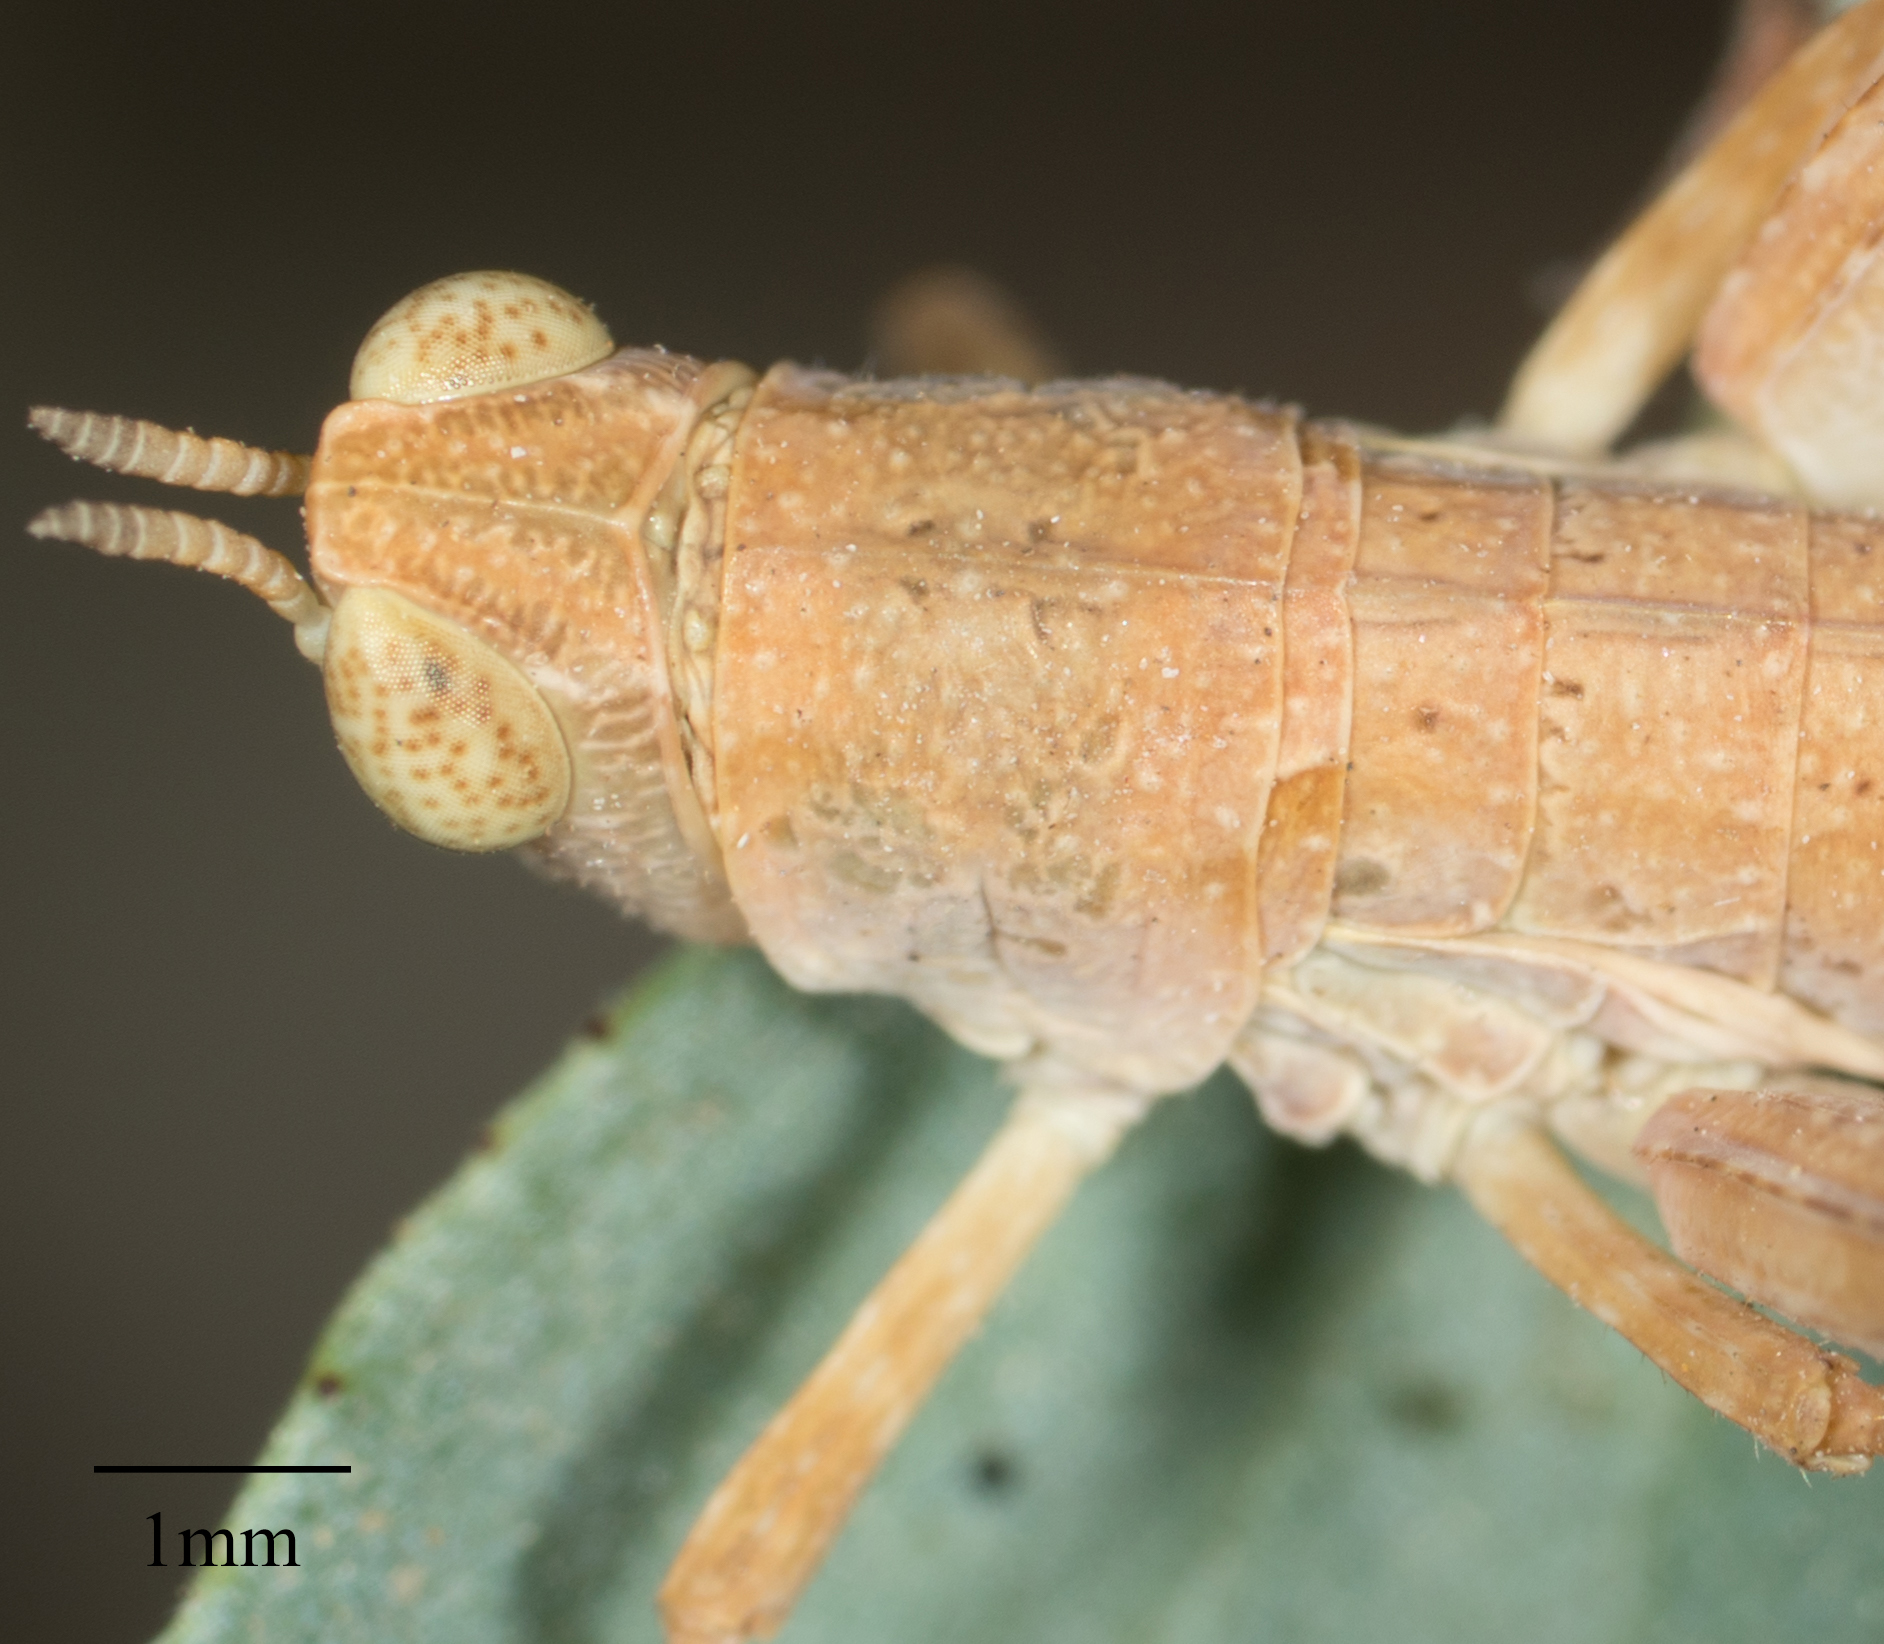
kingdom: Animalia
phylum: Arthropoda
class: Insecta
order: Orthoptera
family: Eumastacidae
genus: Morsea
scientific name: Morsea californica
